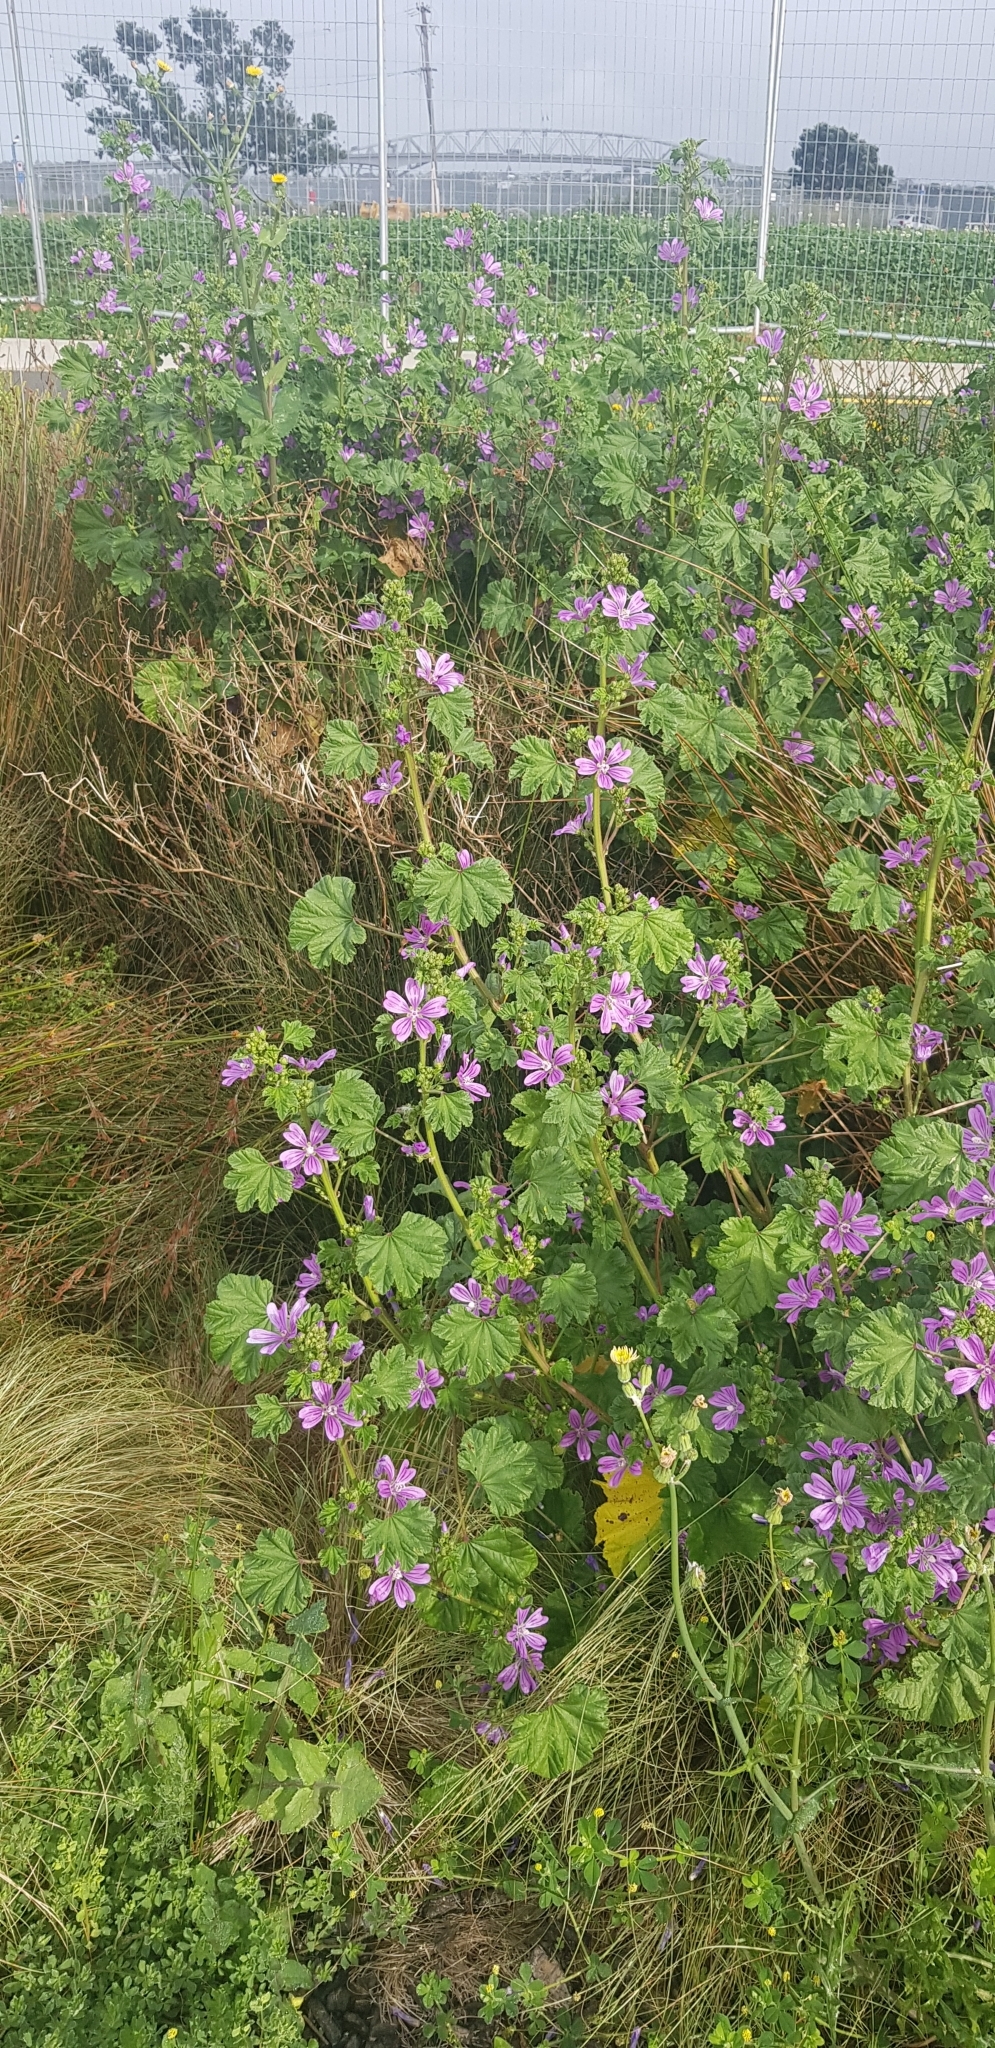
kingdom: Plantae
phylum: Tracheophyta
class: Magnoliopsida
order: Malvales
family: Malvaceae
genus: Malva
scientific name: Malva sylvestris
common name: Common mallow
